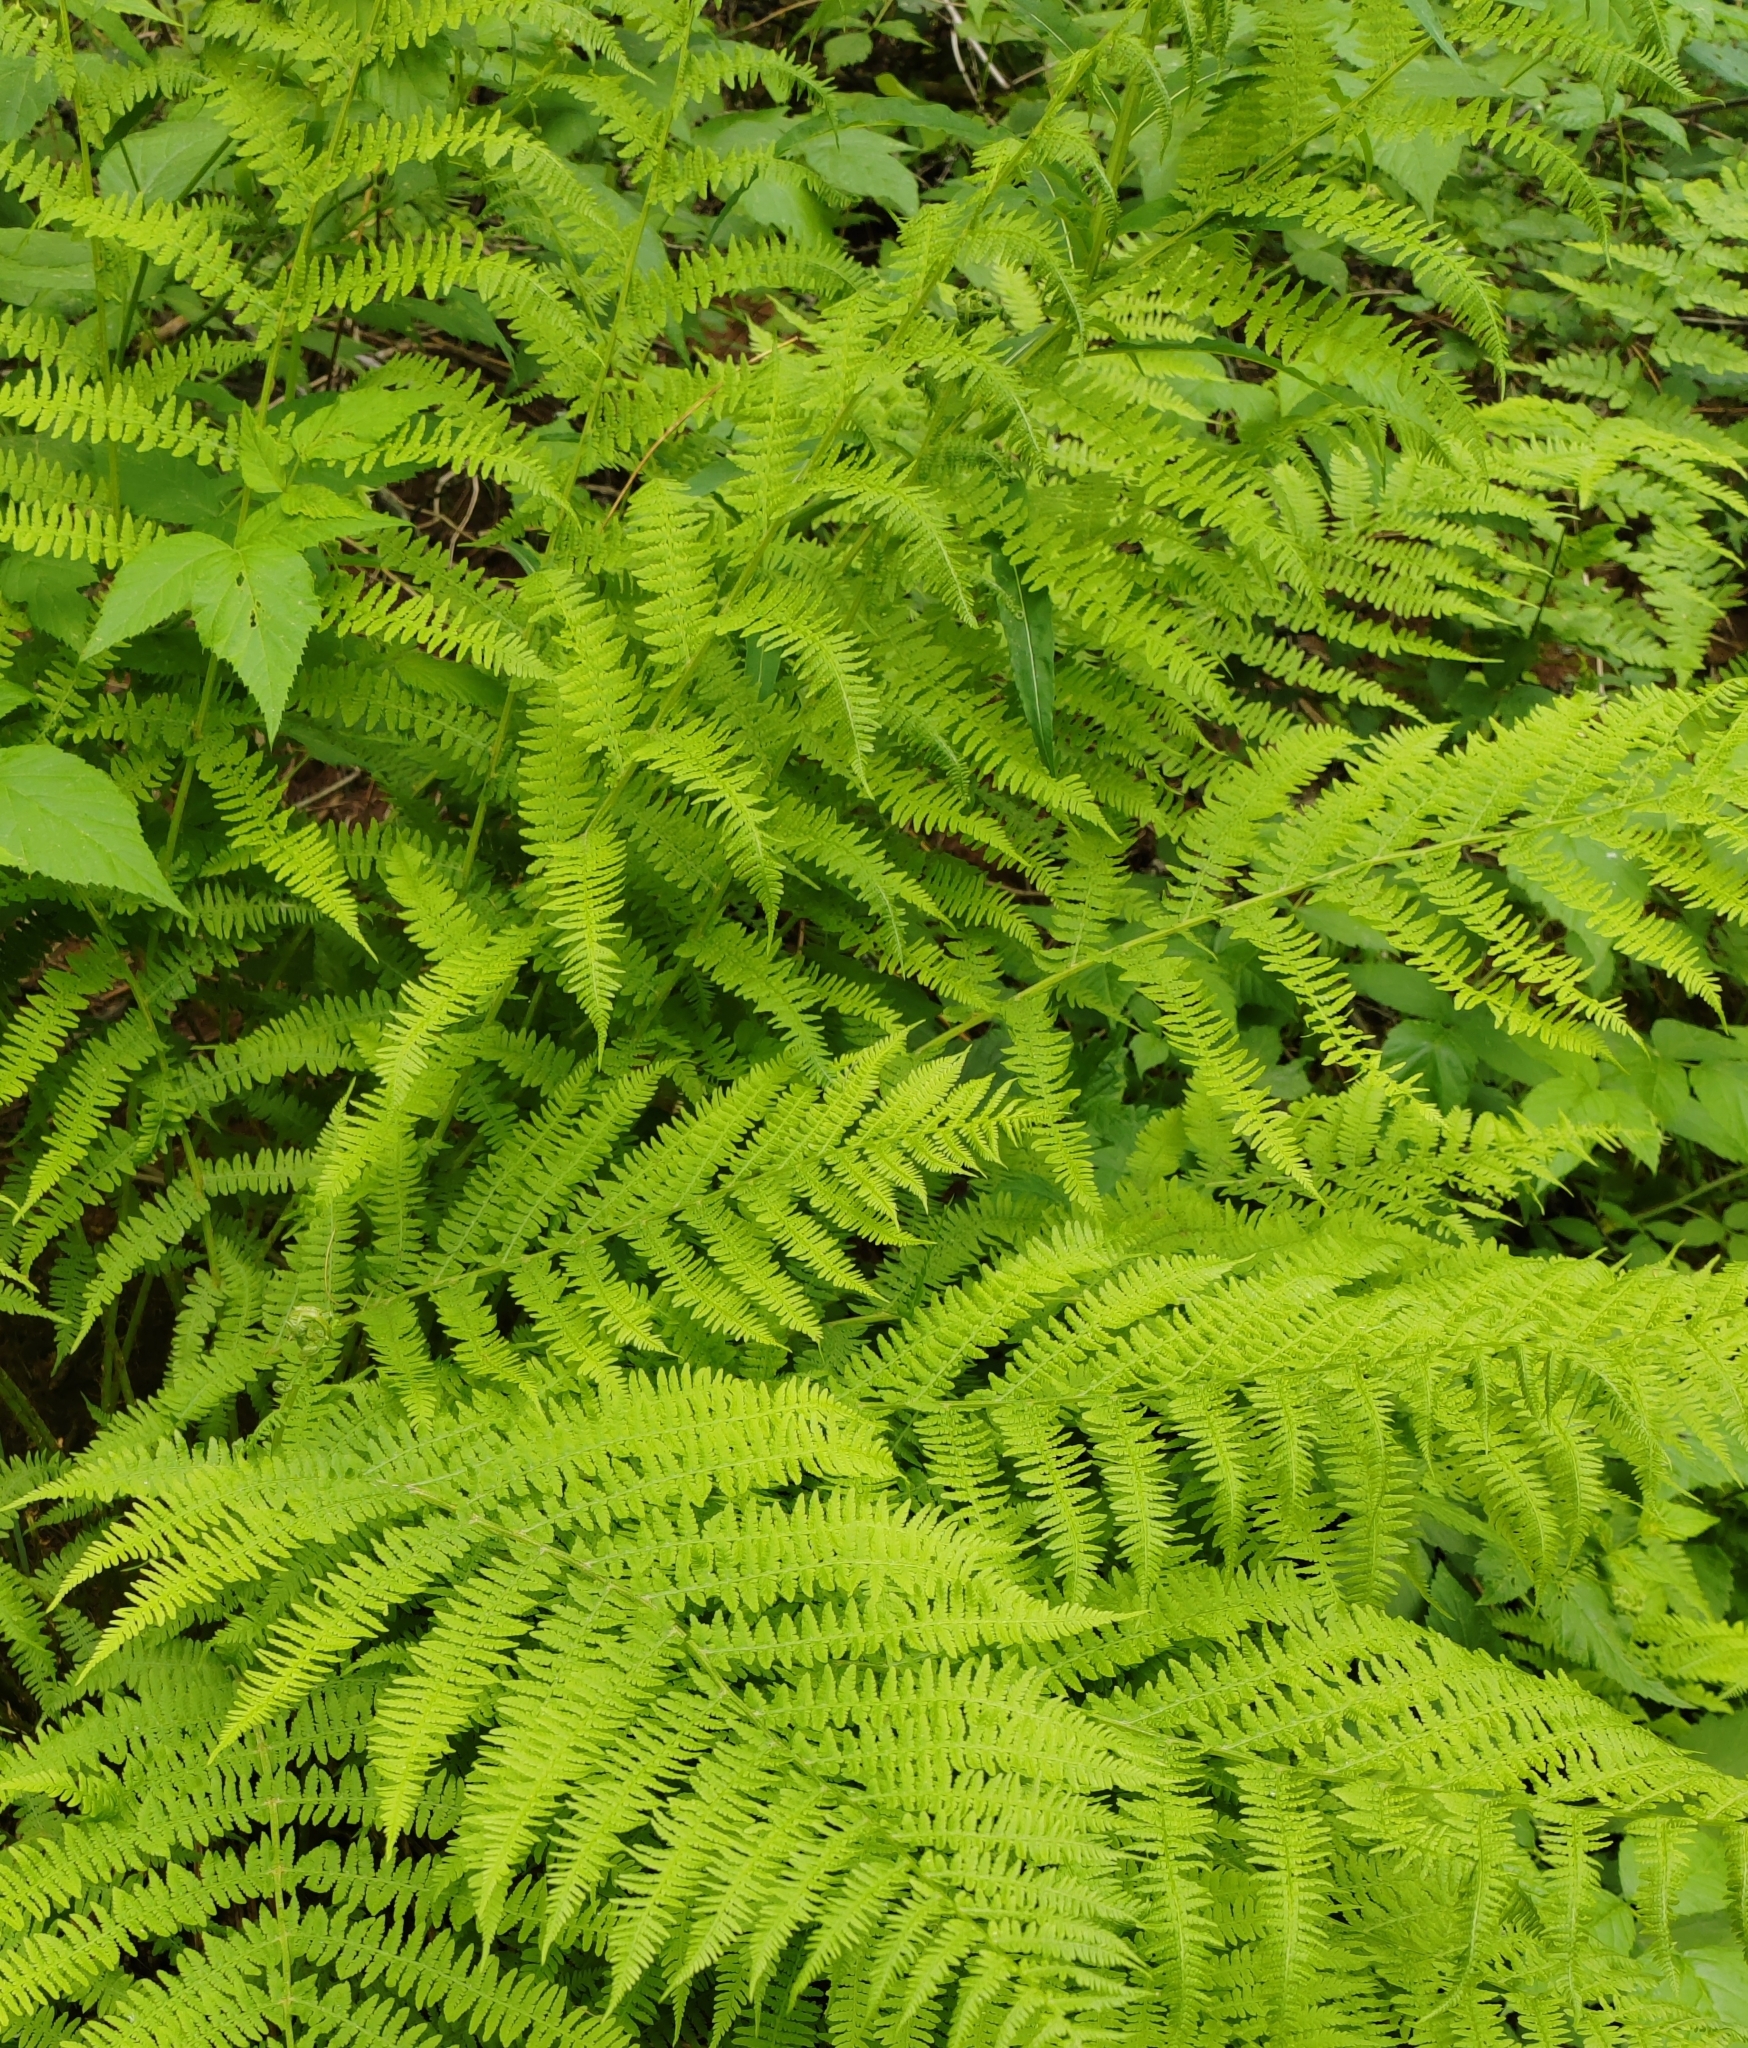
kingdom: Plantae
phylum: Tracheophyta
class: Polypodiopsida
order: Polypodiales
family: Athyriaceae
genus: Athyrium
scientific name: Athyrium filix-femina
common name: Lady fern
